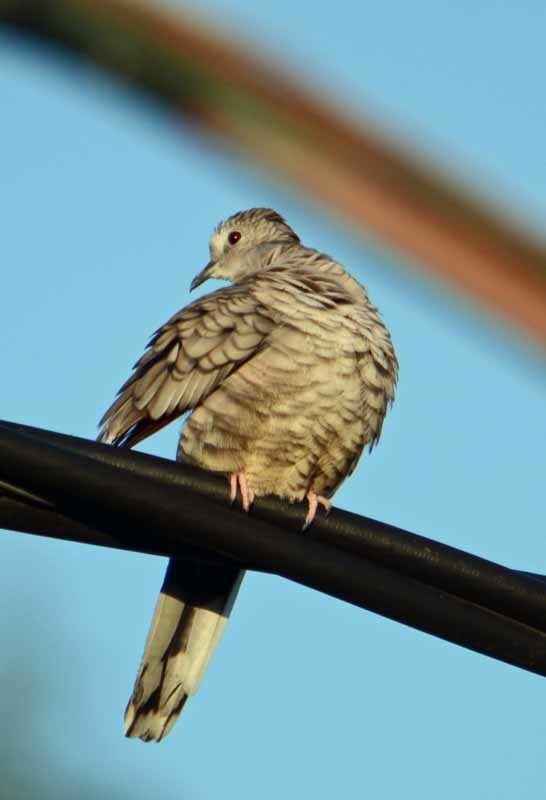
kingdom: Animalia
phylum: Chordata
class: Aves
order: Columbiformes
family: Columbidae
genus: Columbina
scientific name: Columbina inca
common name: Inca dove
